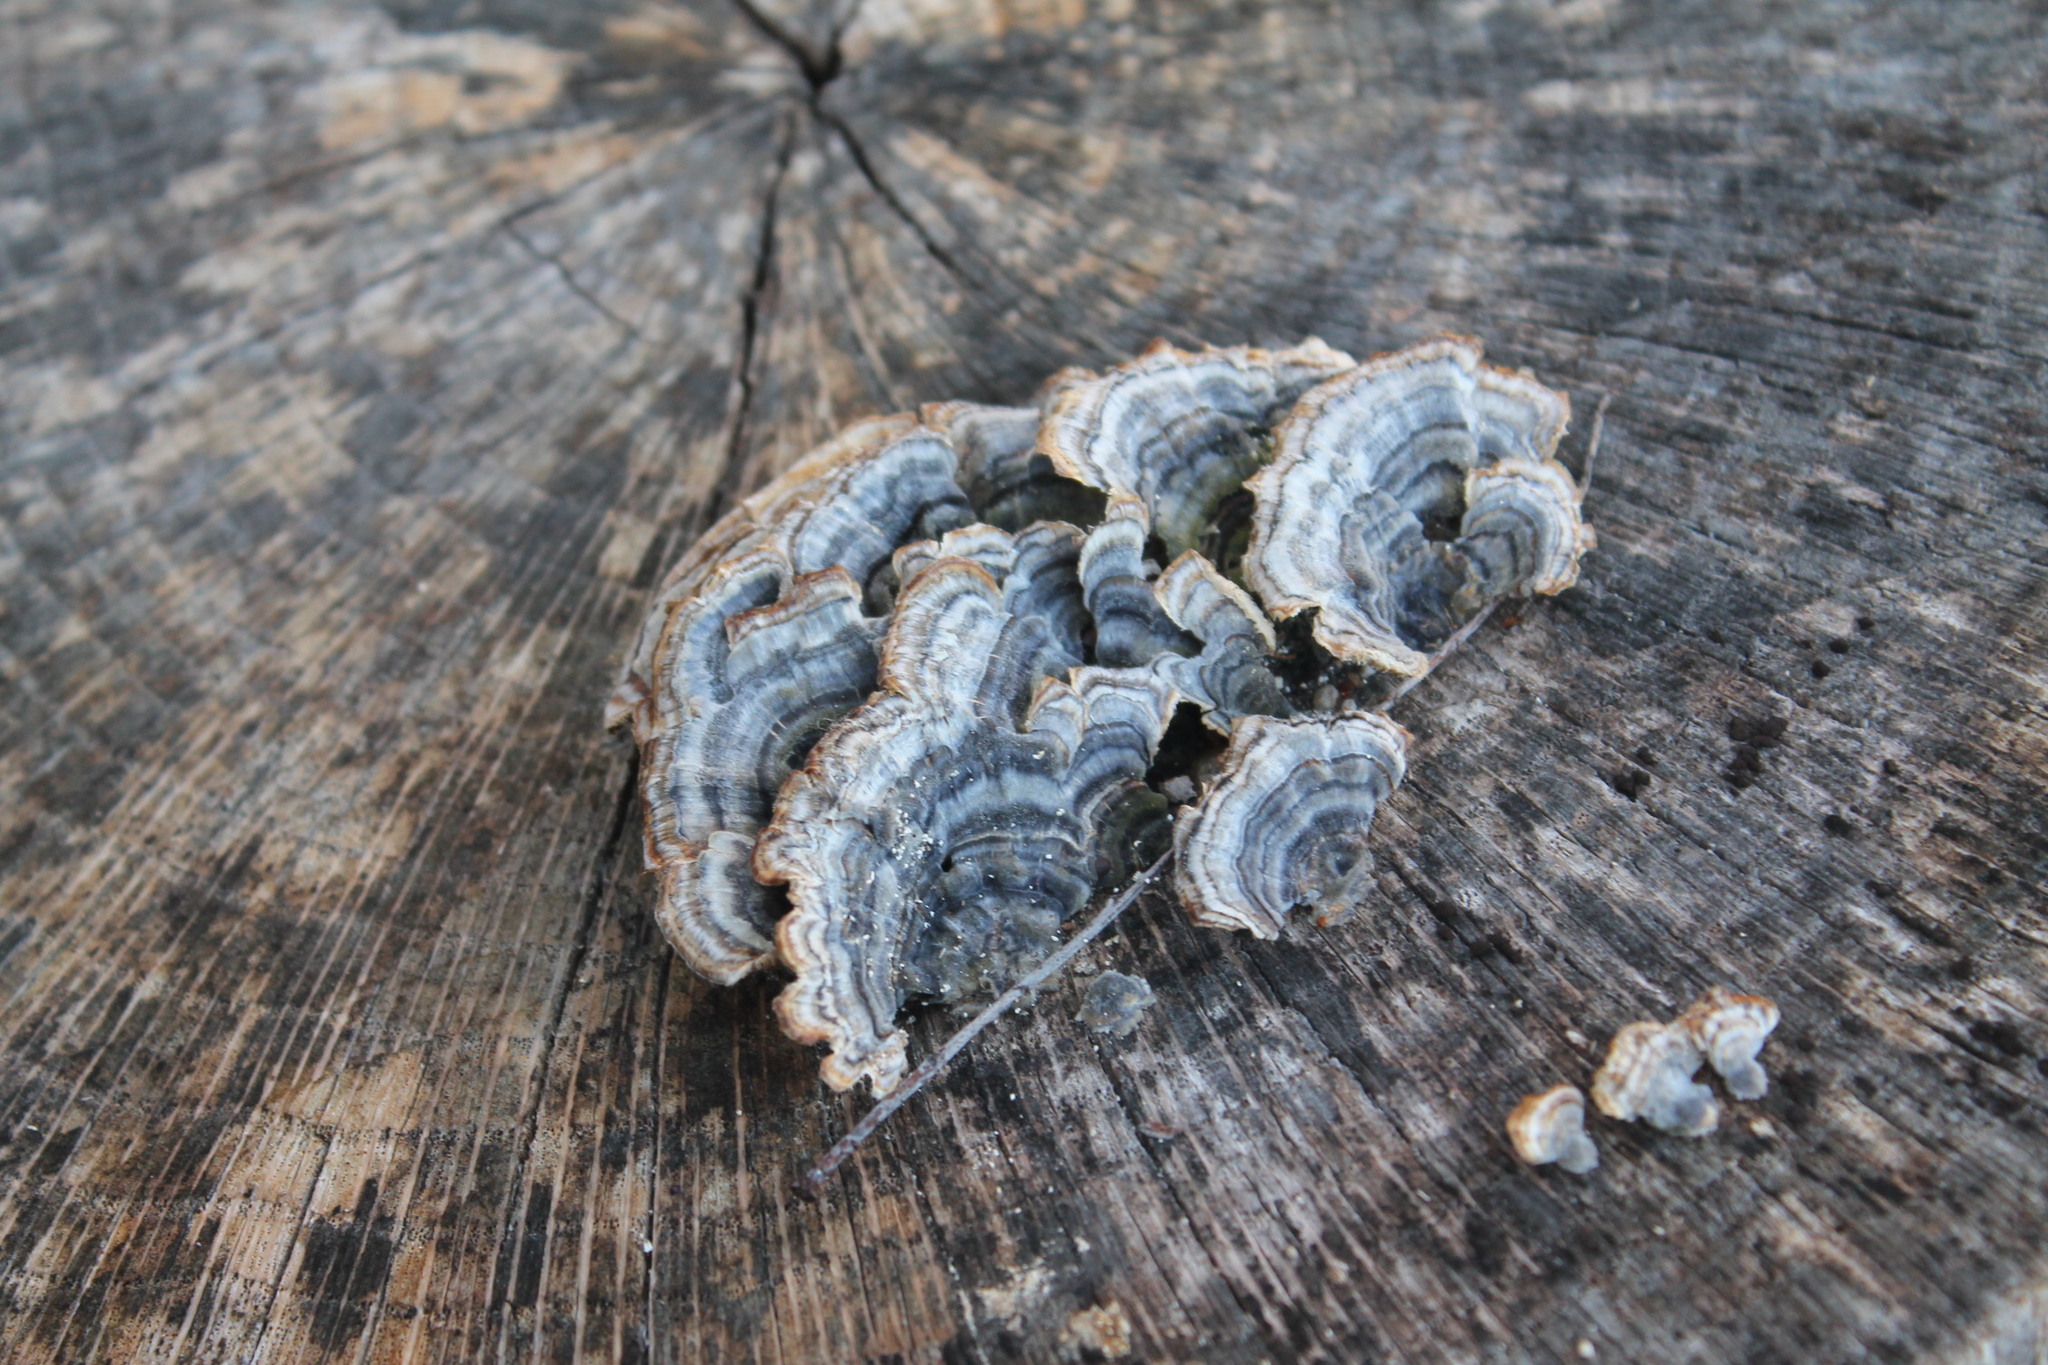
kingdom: Fungi
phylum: Basidiomycota
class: Agaricomycetes
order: Polyporales
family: Polyporaceae
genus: Trametes
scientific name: Trametes versicolor
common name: Turkeytail
